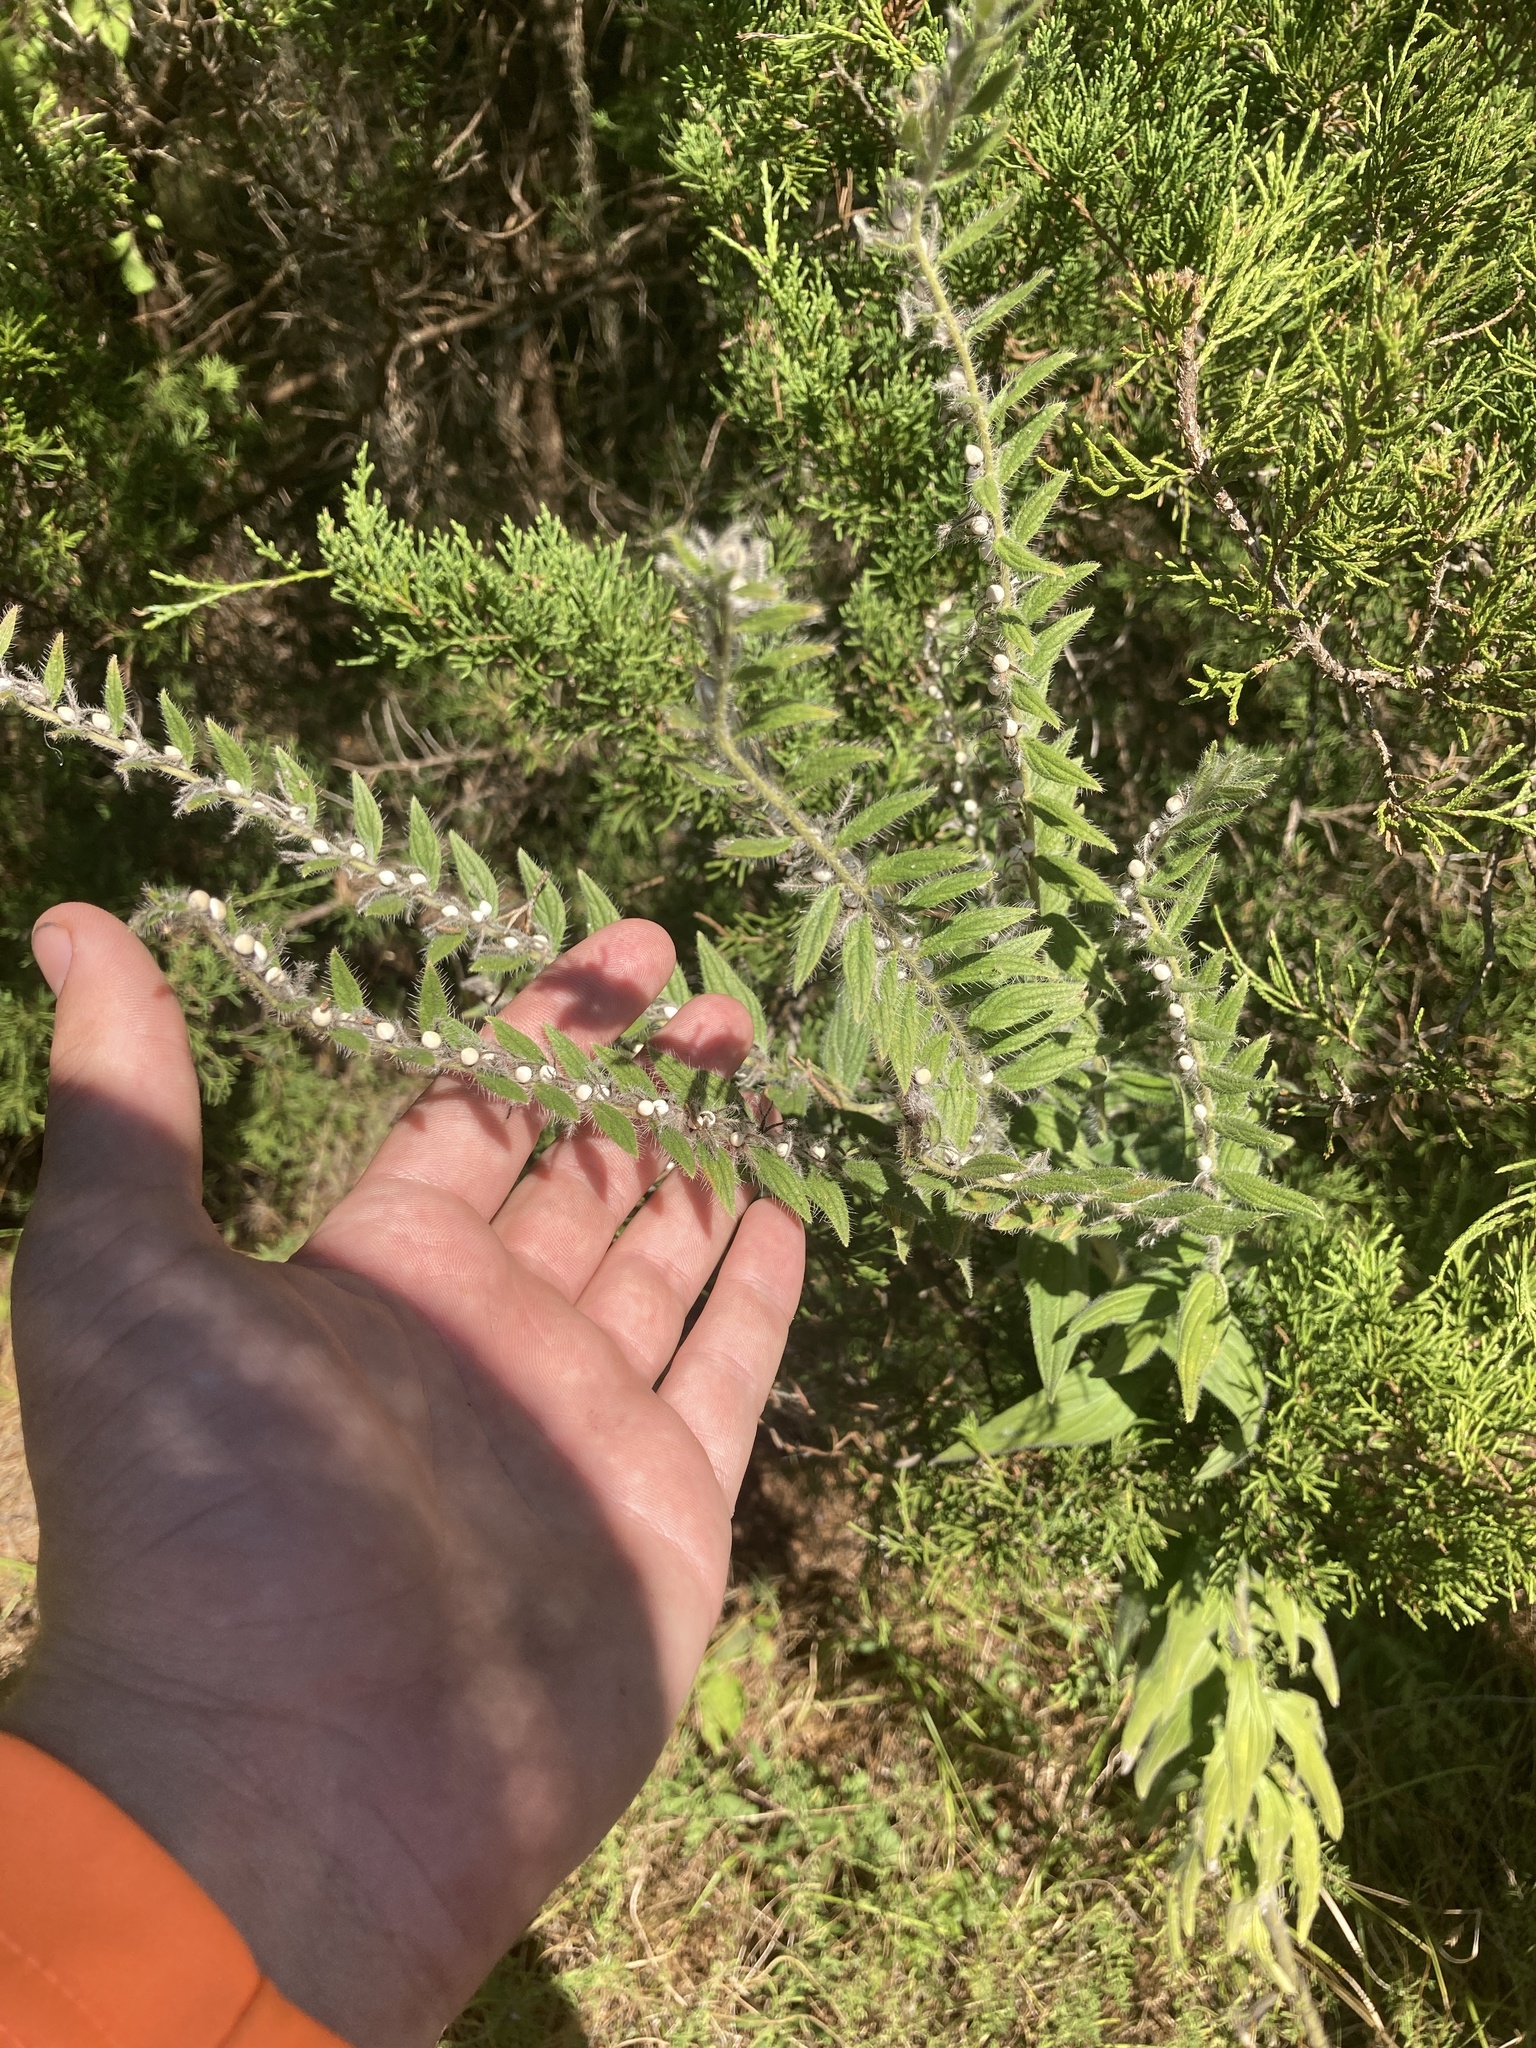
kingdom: Plantae
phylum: Tracheophyta
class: Magnoliopsida
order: Boraginales
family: Boraginaceae
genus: Lithospermum
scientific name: Lithospermum caroliniense
